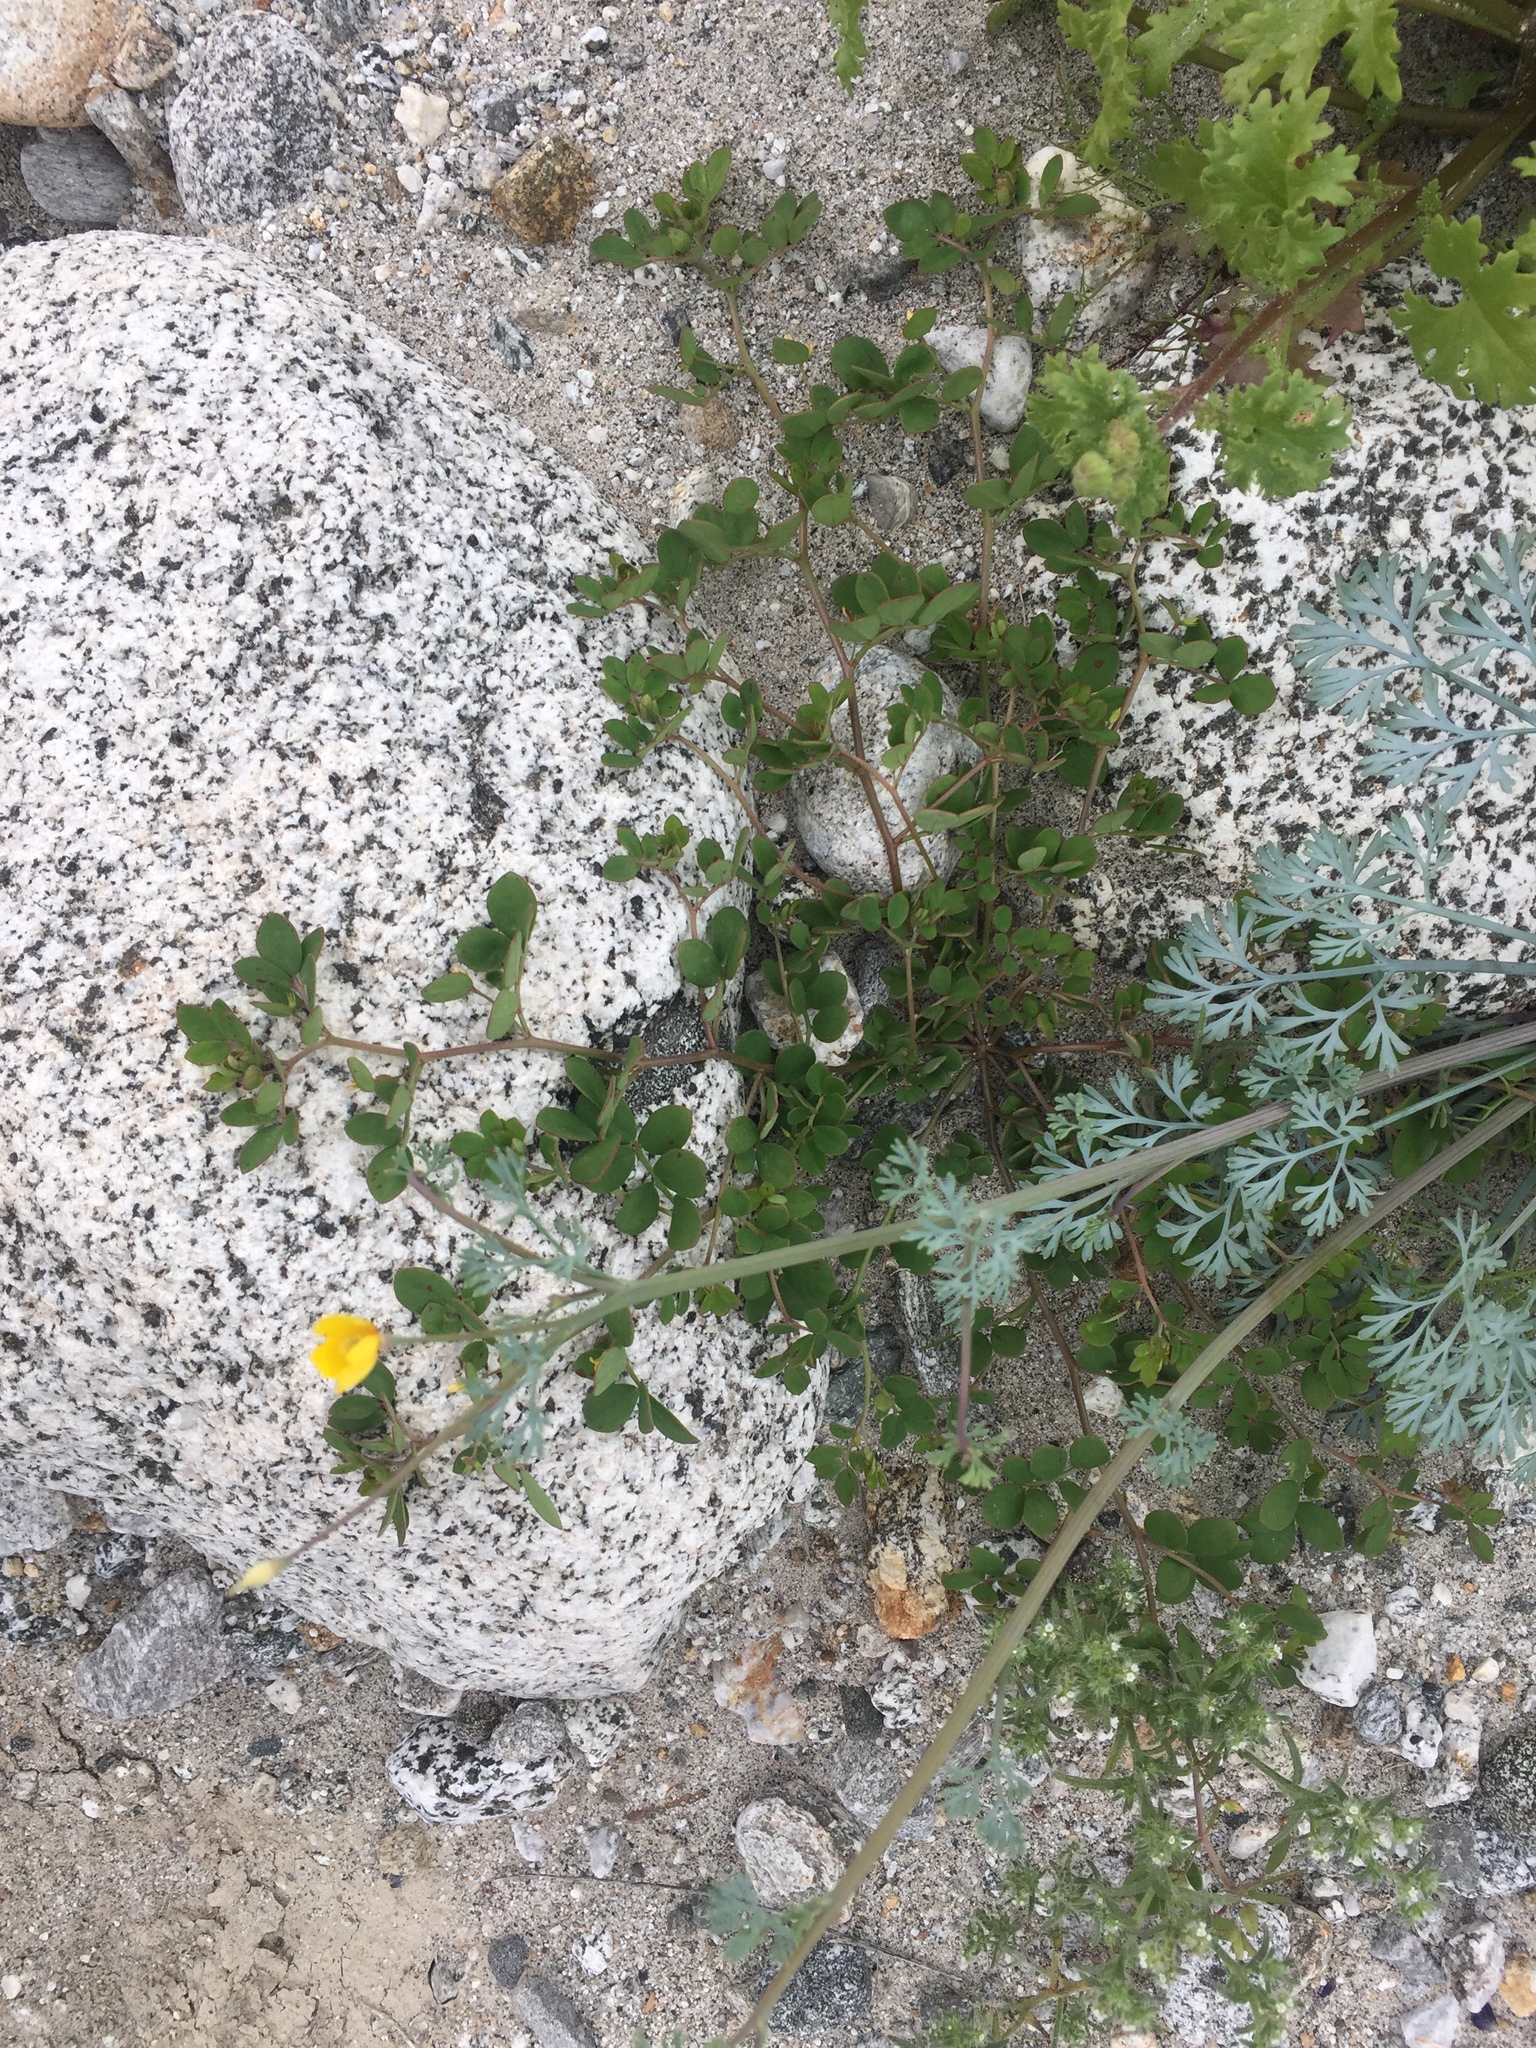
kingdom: Plantae
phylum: Tracheophyta
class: Magnoliopsida
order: Fabales
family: Fabaceae
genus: Acmispon
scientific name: Acmispon maritimus
